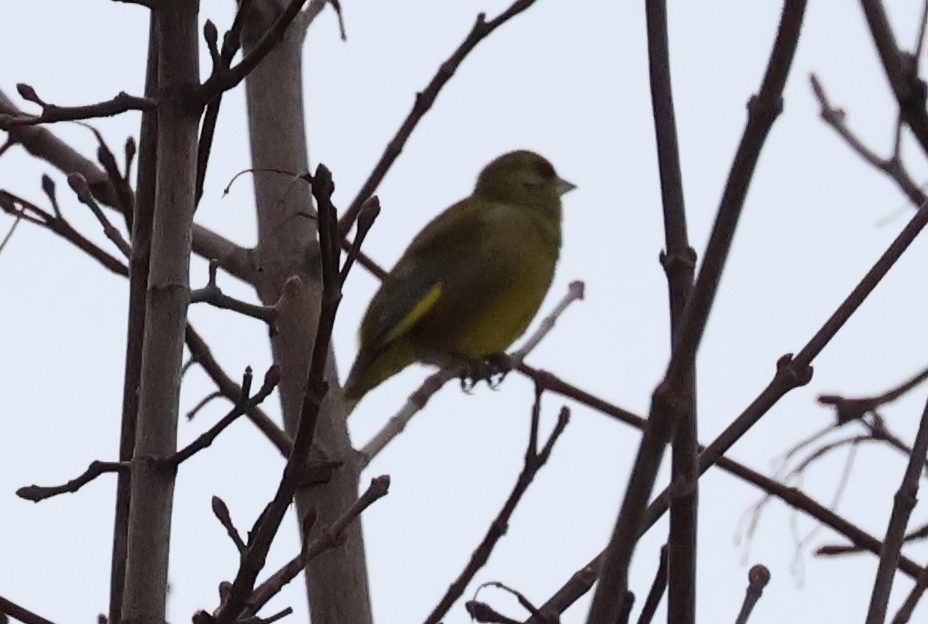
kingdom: Plantae
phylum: Tracheophyta
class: Liliopsida
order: Poales
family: Poaceae
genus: Chloris
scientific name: Chloris chloris
